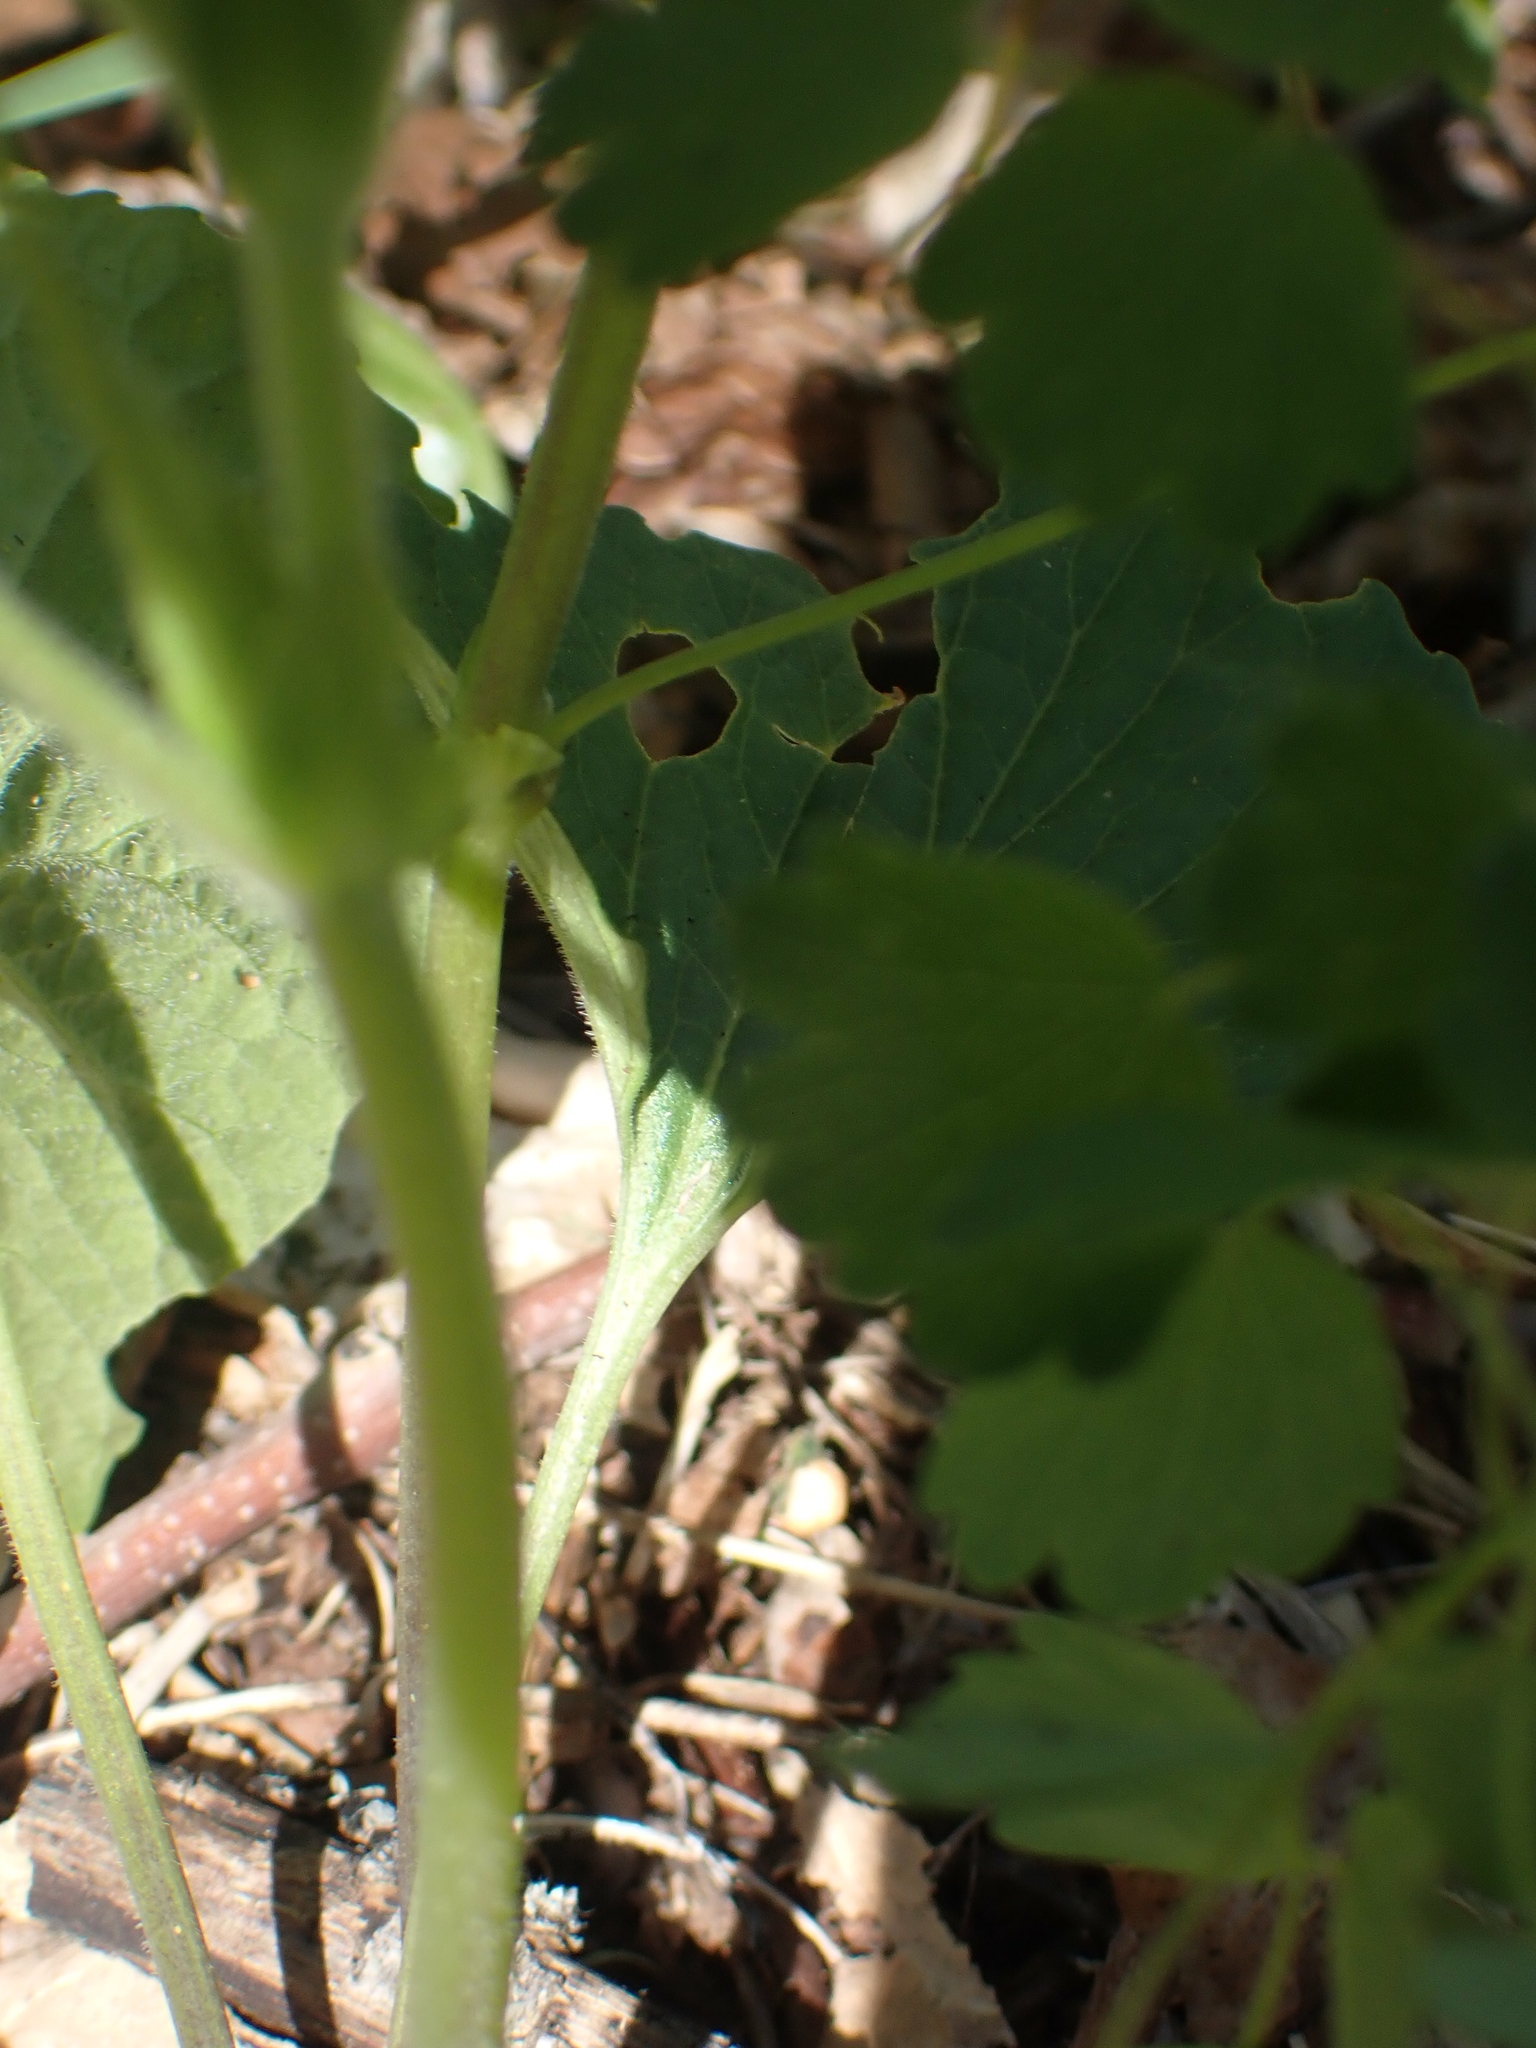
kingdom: Plantae
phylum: Tracheophyta
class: Magnoliopsida
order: Malpighiales
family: Violaceae
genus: Viola
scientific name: Viola eriocarpa
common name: Smooth yellow violet
